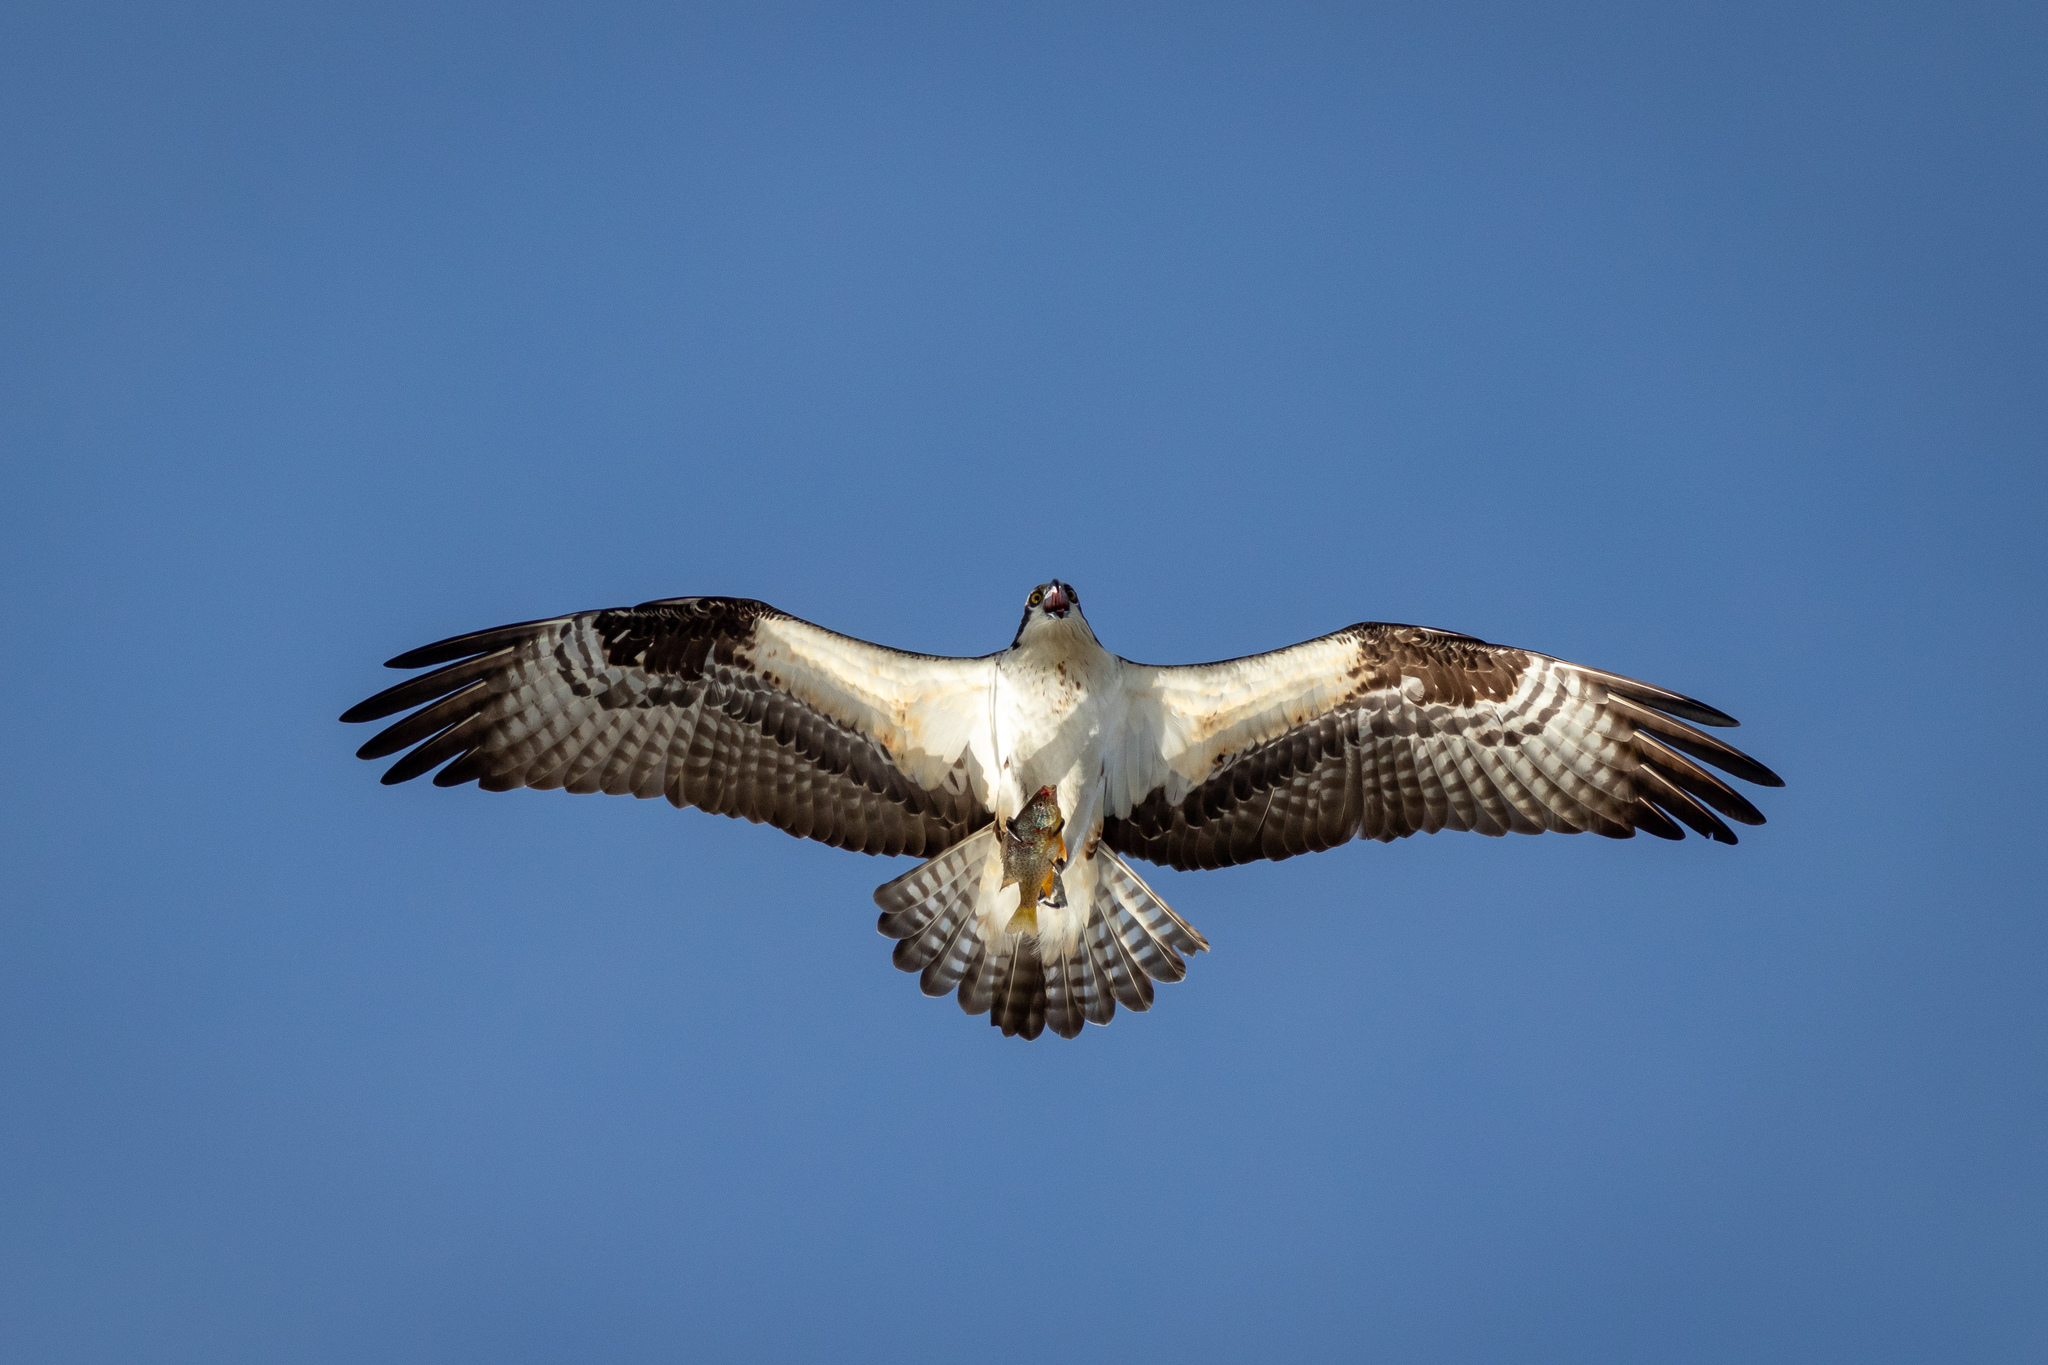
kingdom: Animalia
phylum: Chordata
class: Aves
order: Accipitriformes
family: Pandionidae
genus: Pandion
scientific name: Pandion haliaetus
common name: Osprey
